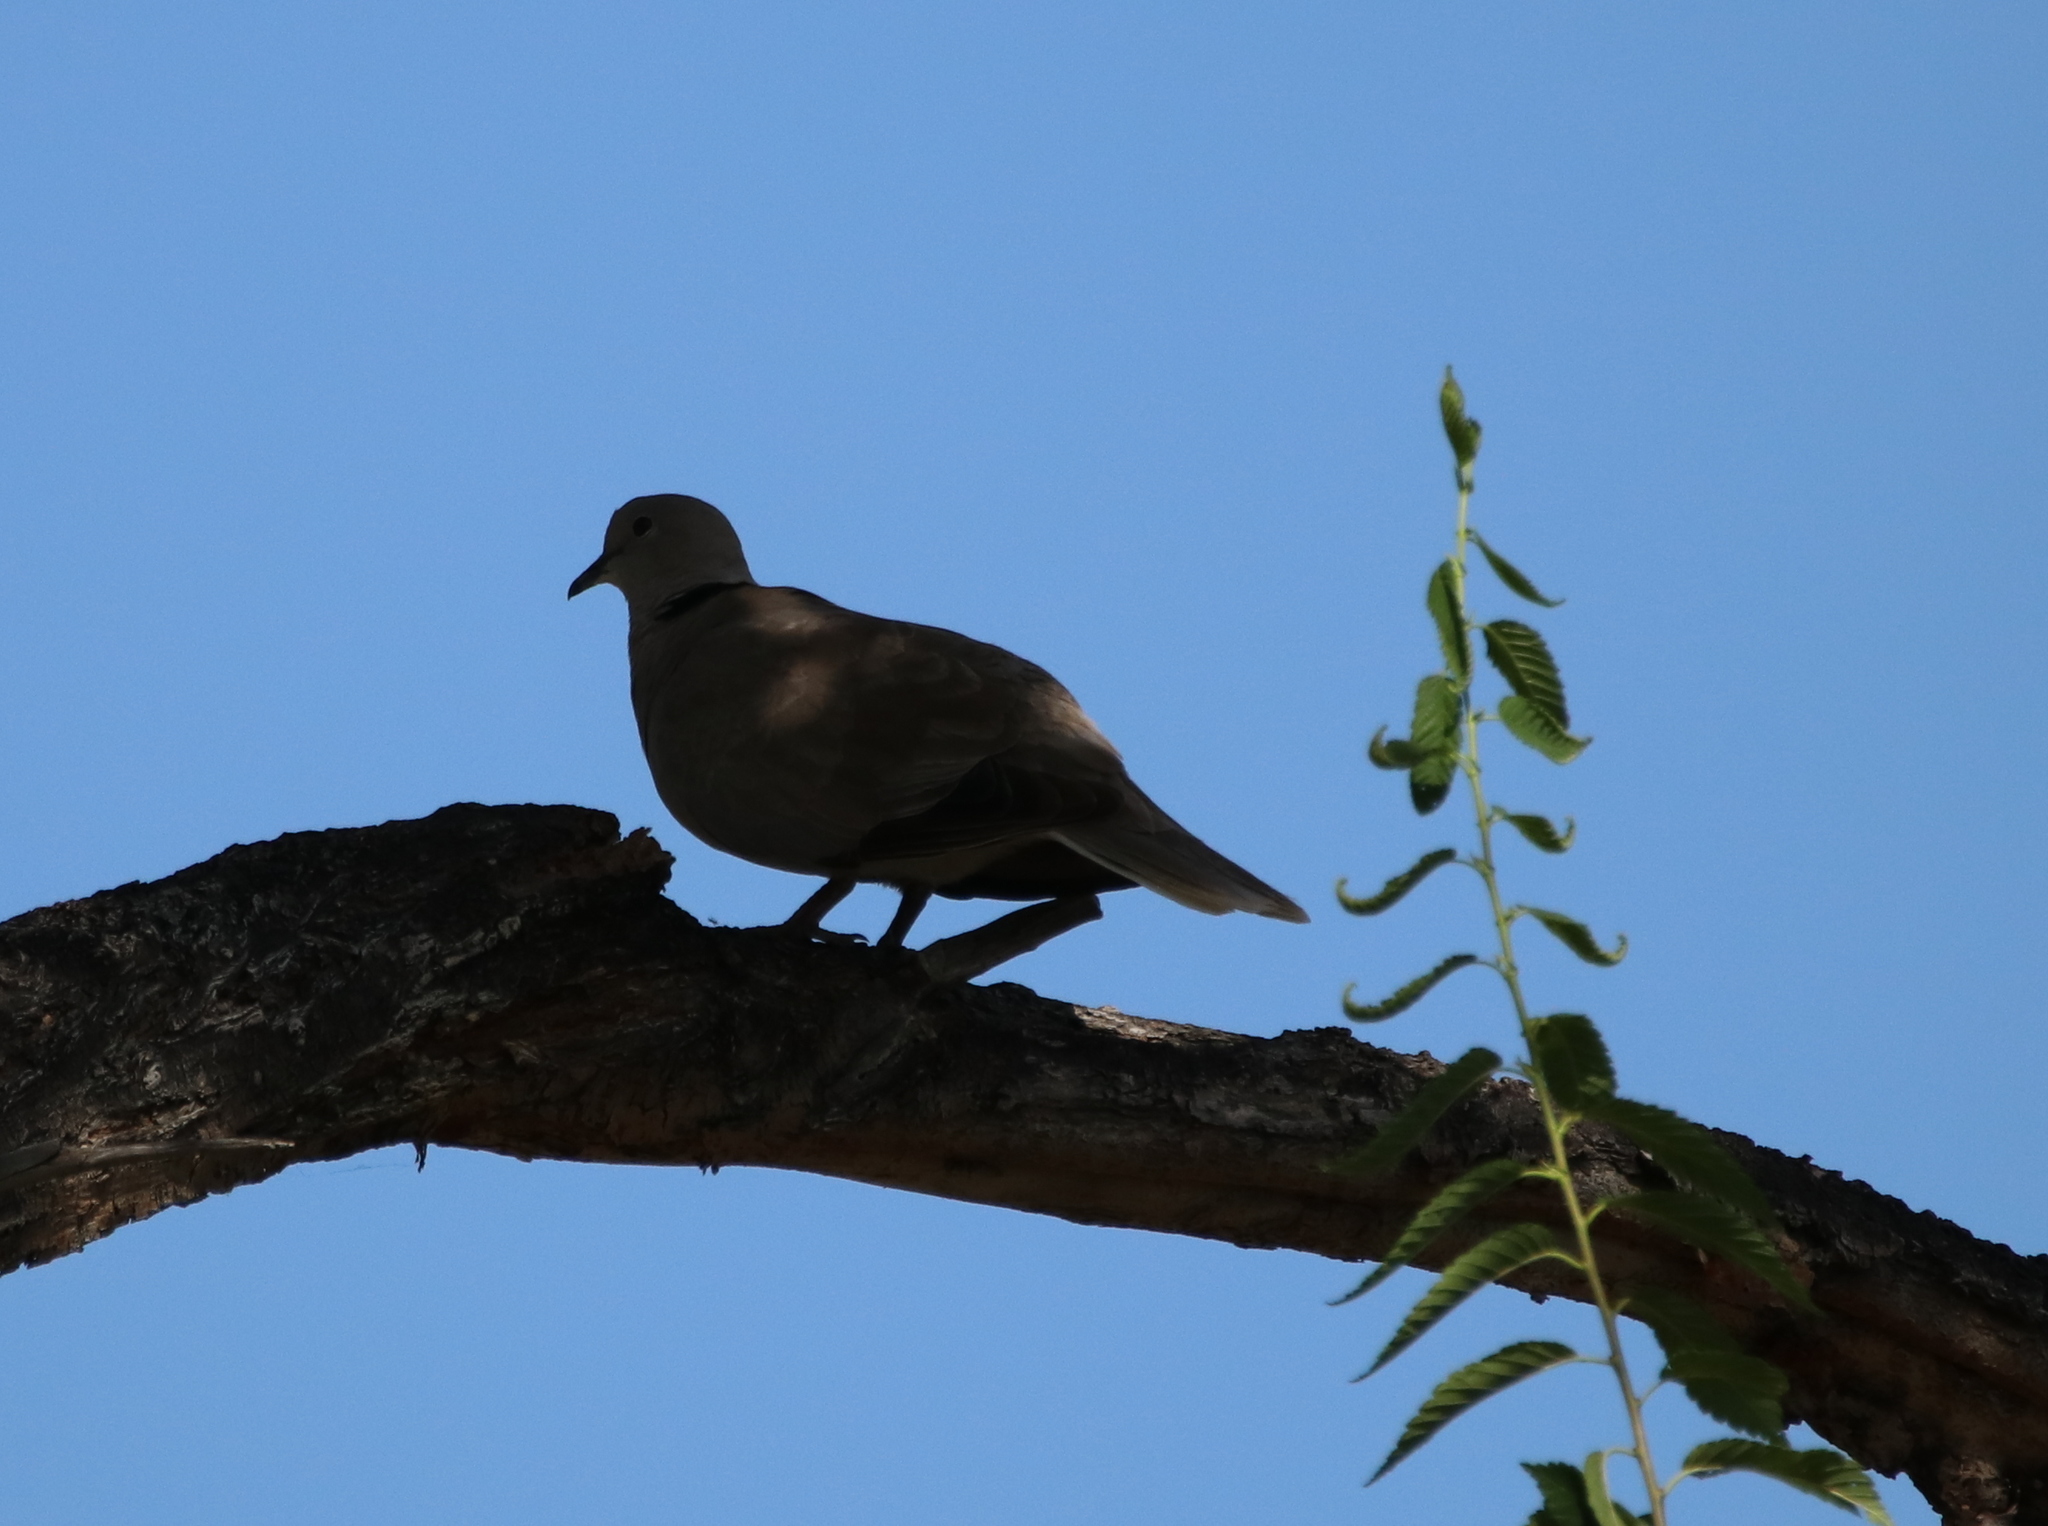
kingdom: Animalia
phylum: Chordata
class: Aves
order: Columbiformes
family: Columbidae
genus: Streptopelia
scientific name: Streptopelia decaocto
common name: Eurasian collared dove
